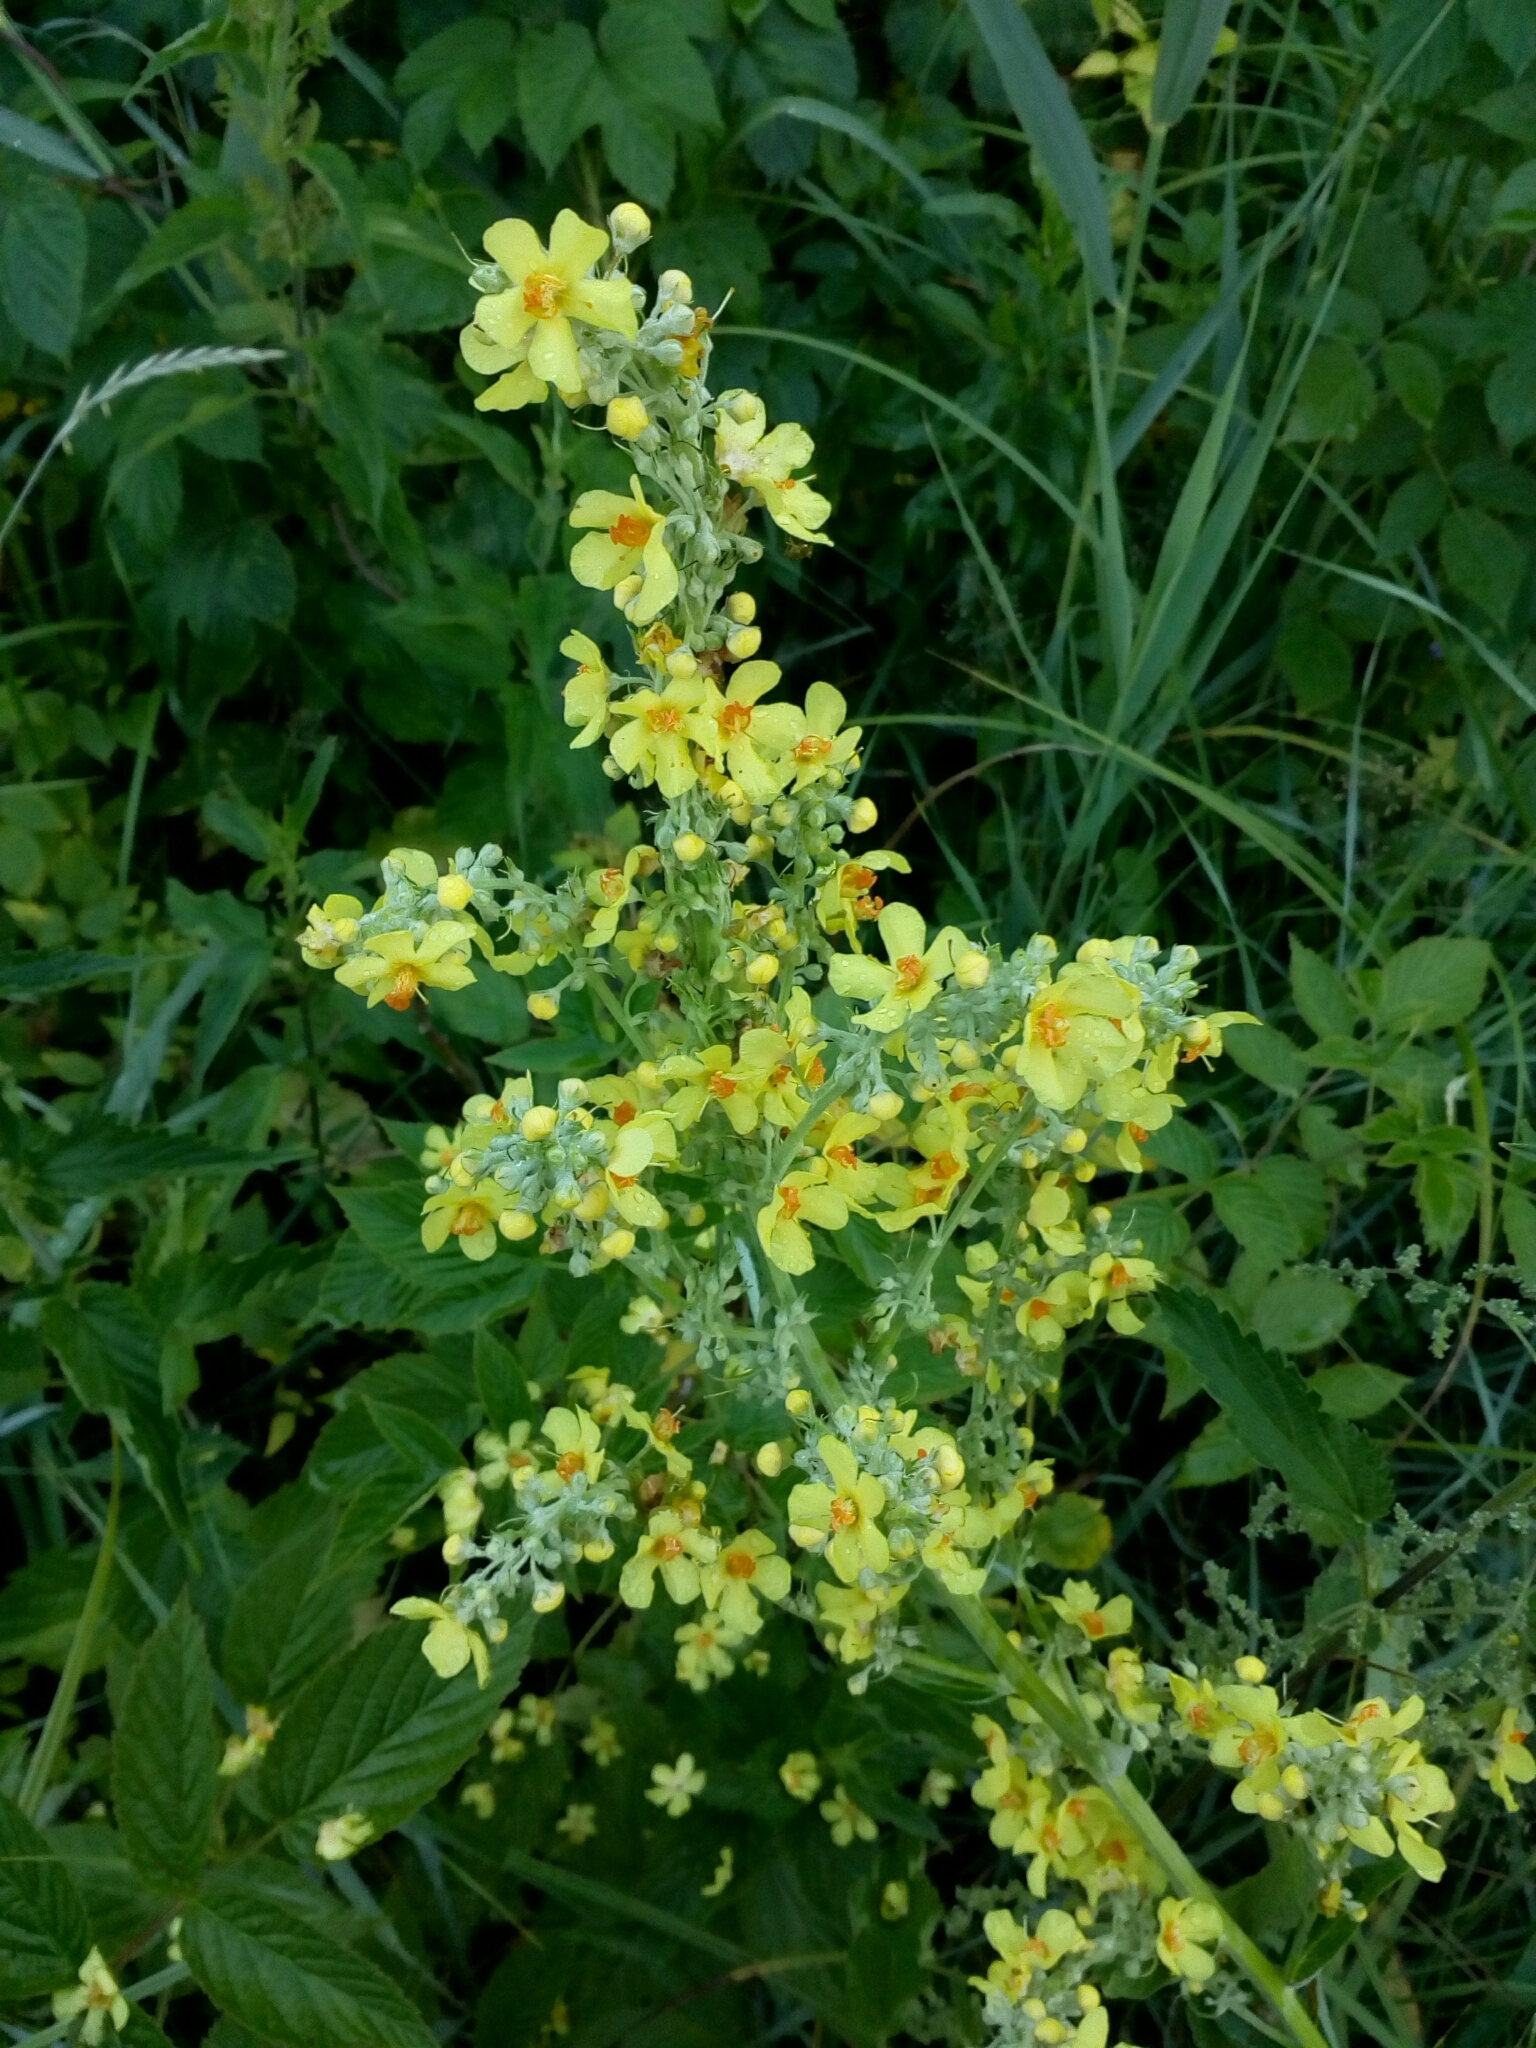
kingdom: Plantae
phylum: Tracheophyta
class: Magnoliopsida
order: Lamiales
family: Scrophulariaceae
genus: Verbascum
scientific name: Verbascum lychnitis
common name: White mullein
